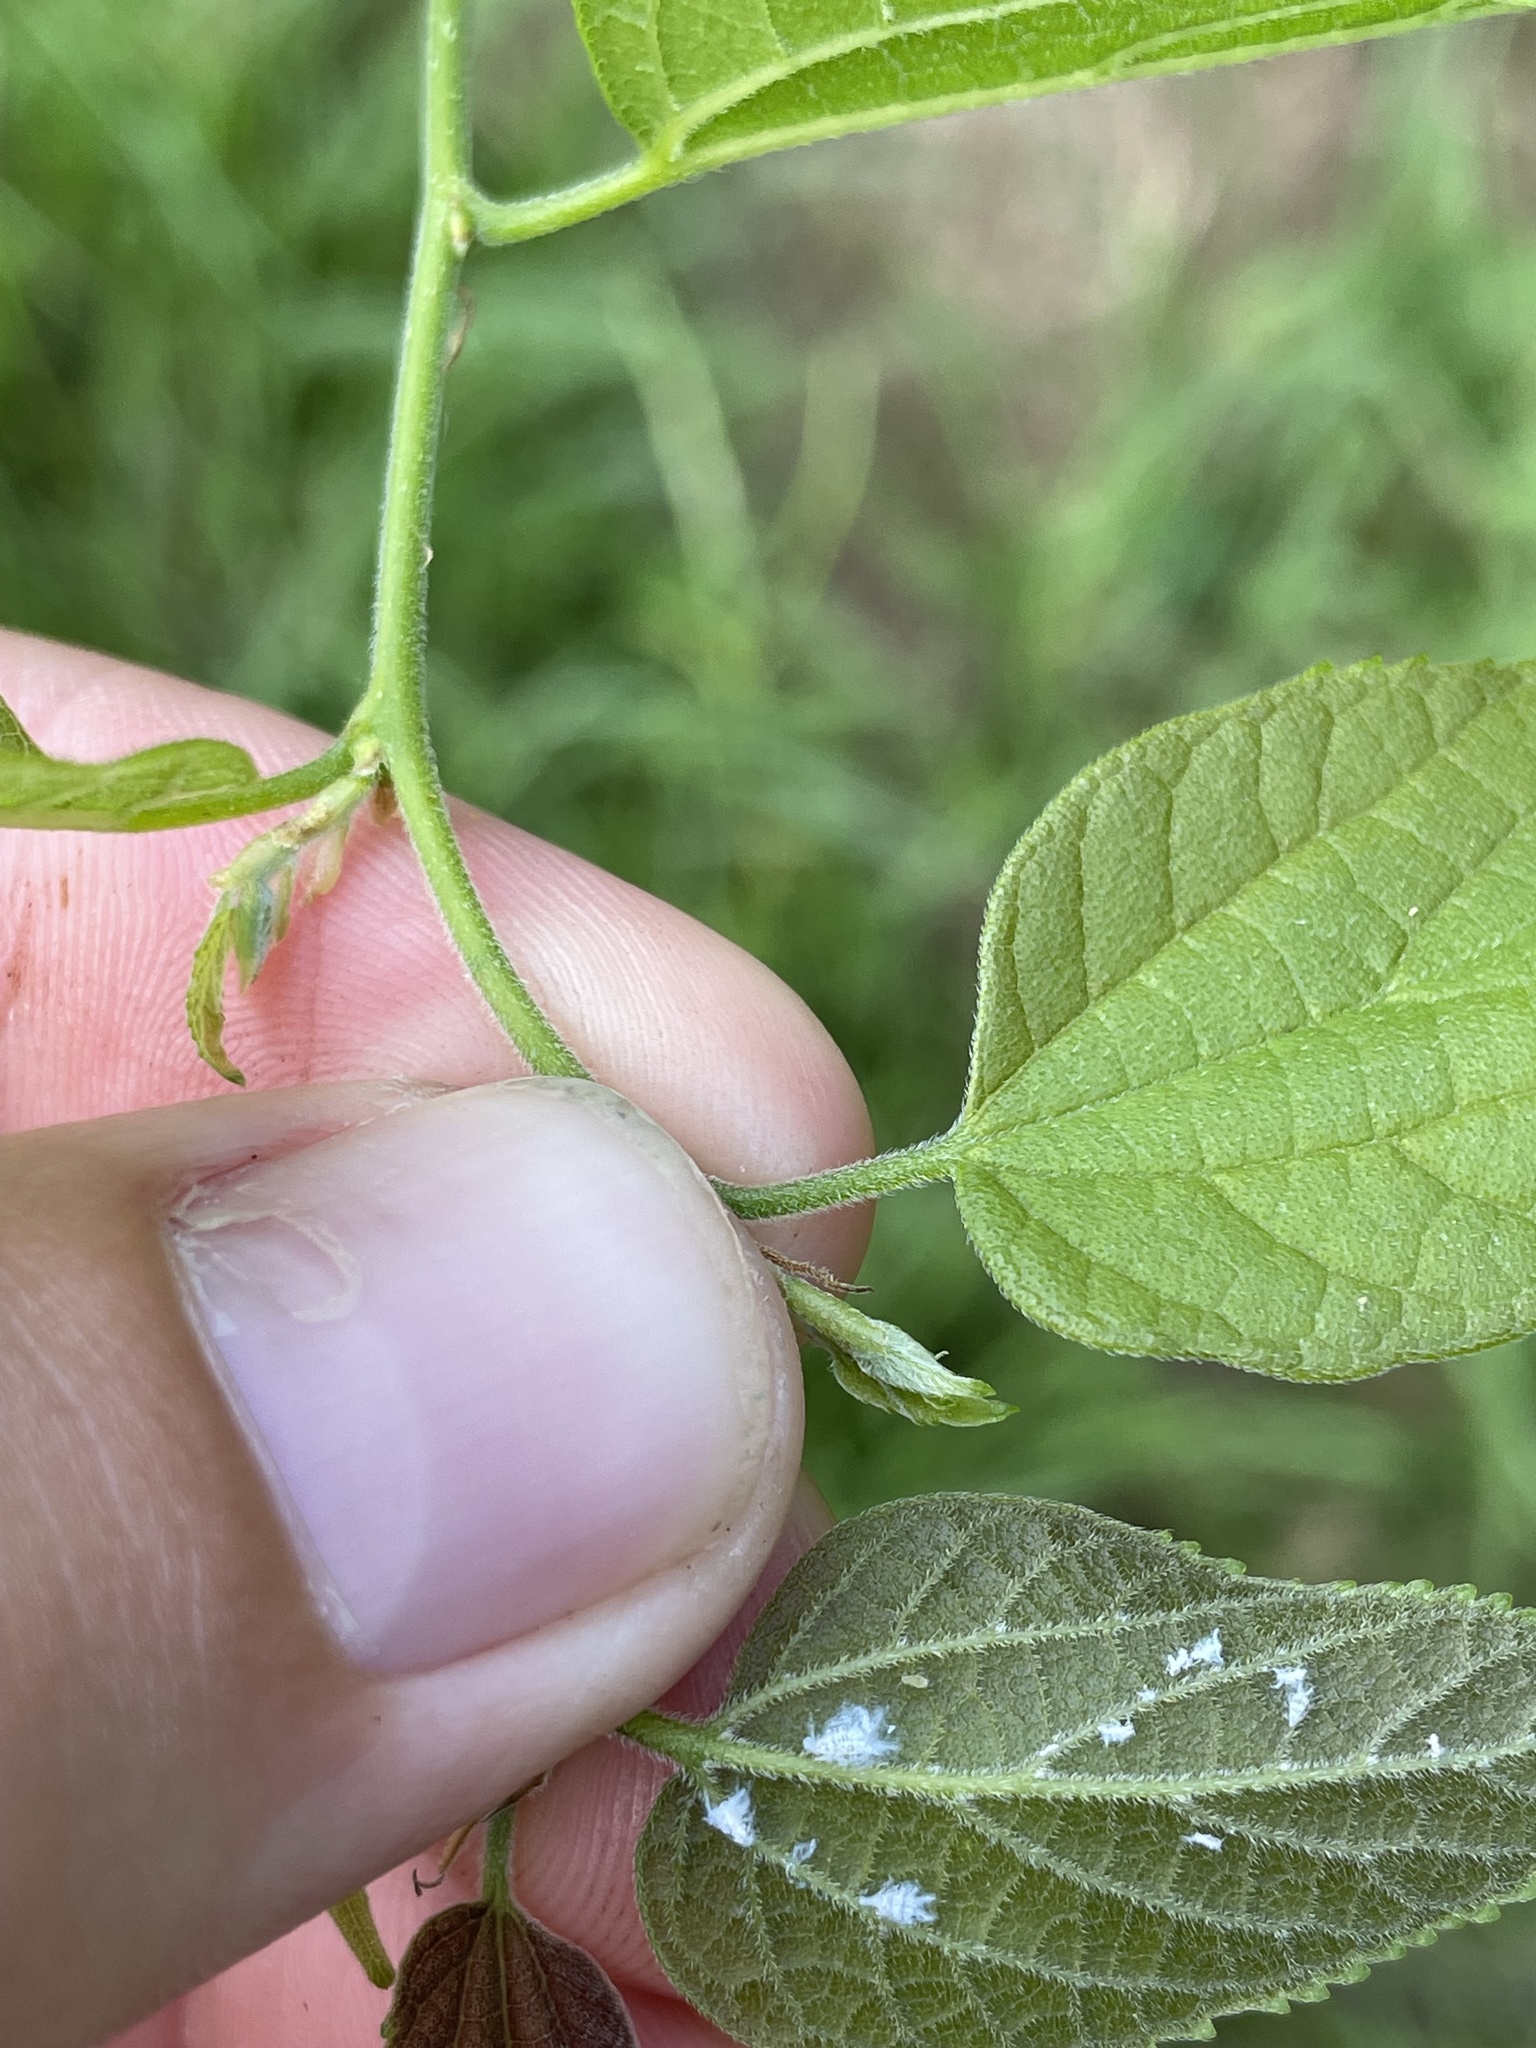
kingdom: Plantae
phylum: Tracheophyta
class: Magnoliopsida
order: Rosales
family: Cannabaceae
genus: Celtis
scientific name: Celtis laevigata
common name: Sugarberry
